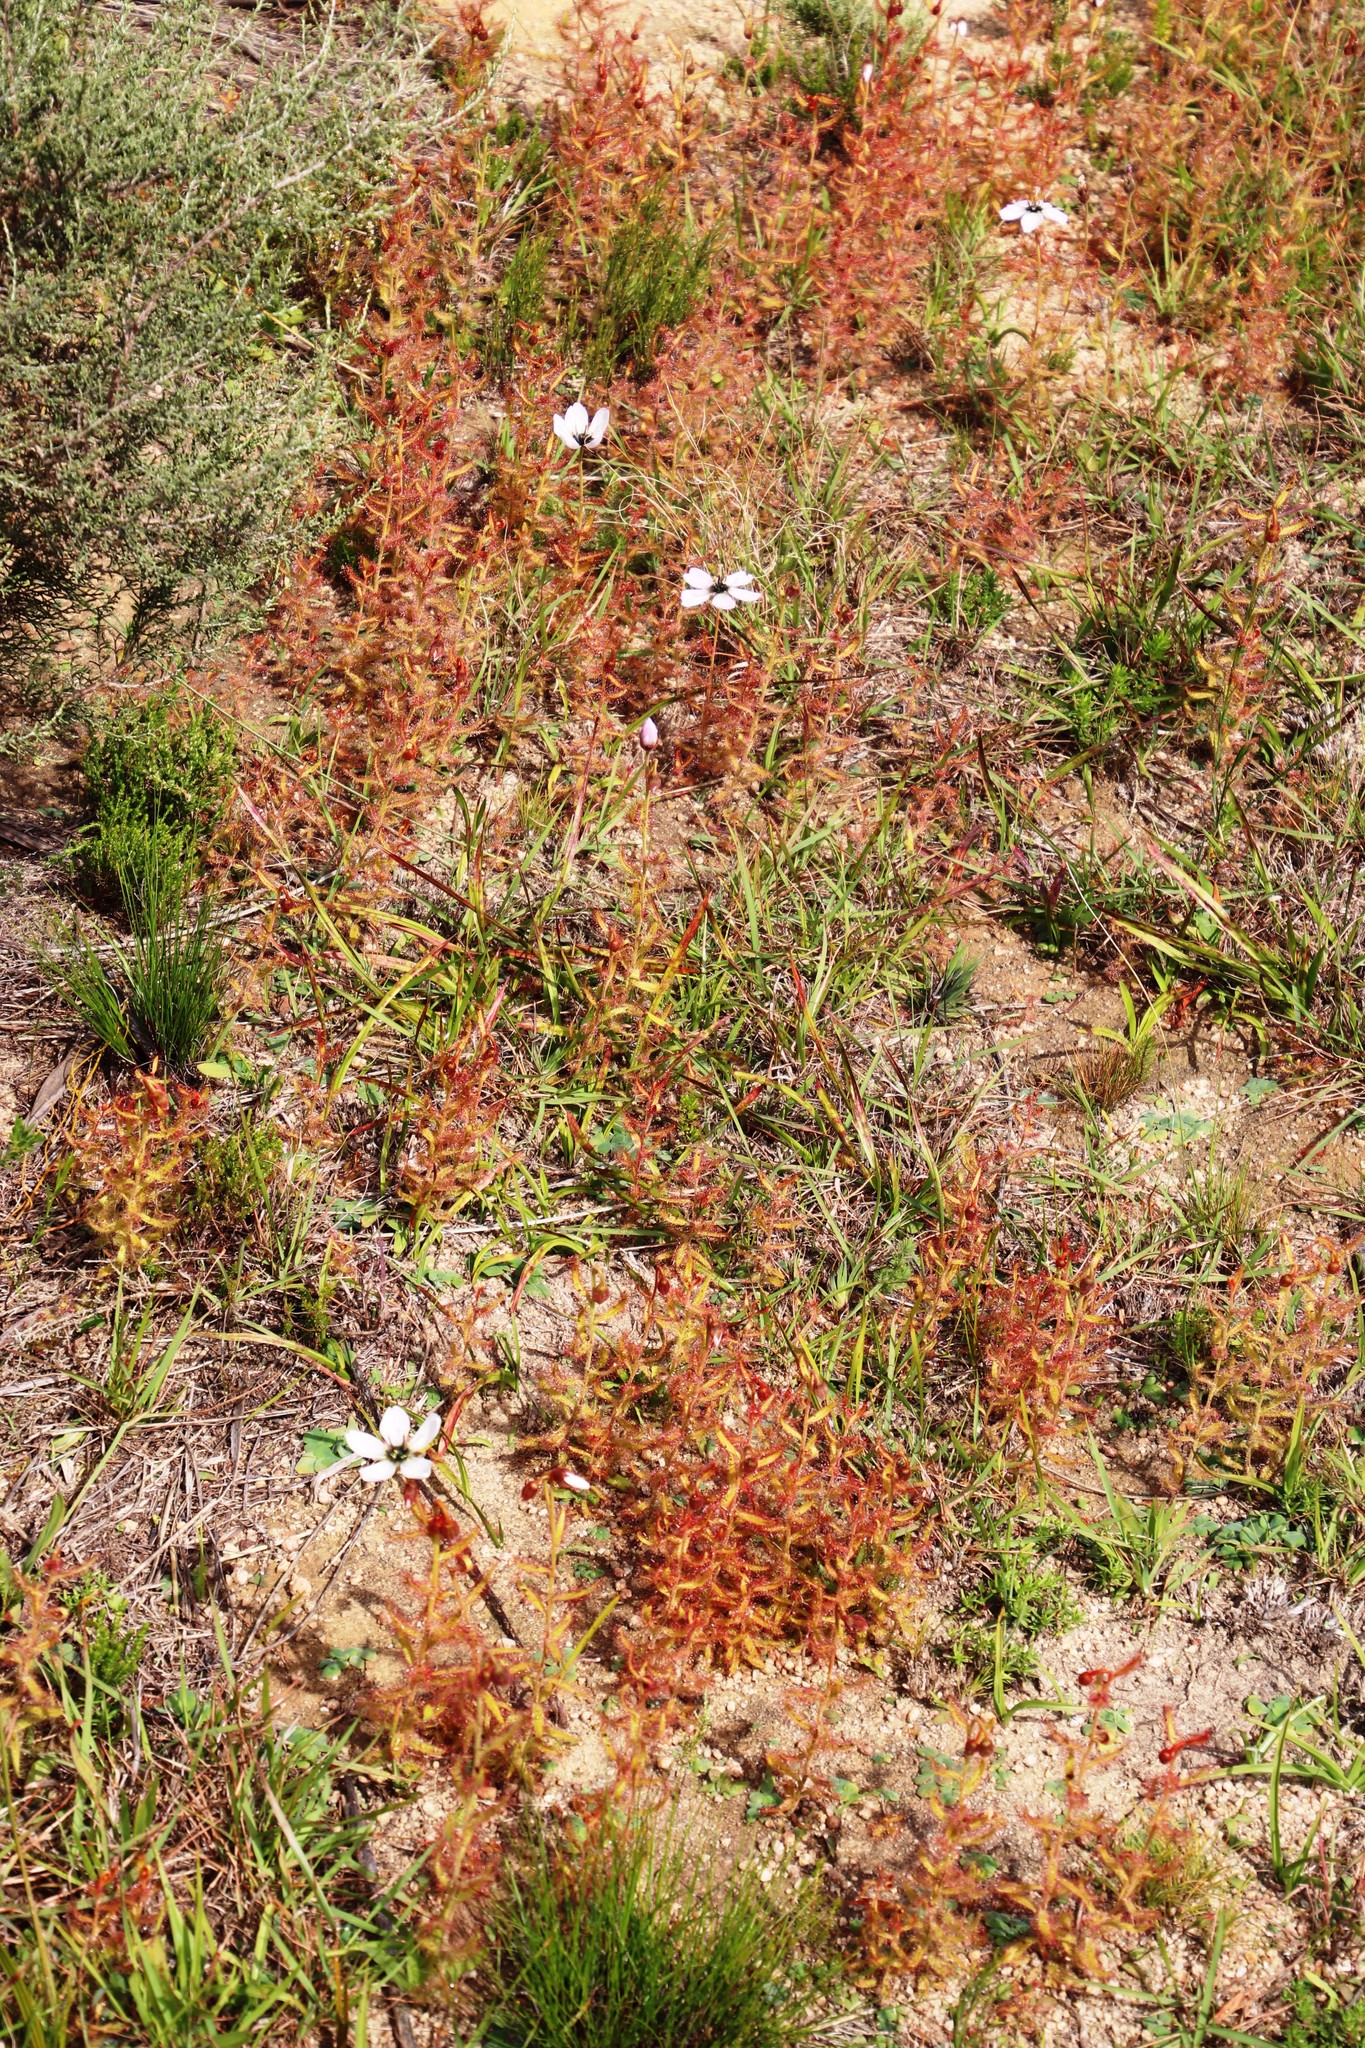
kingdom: Plantae
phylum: Tracheophyta
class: Magnoliopsida
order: Caryophyllales
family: Droseraceae
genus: Drosera
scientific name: Drosera cistiflora
